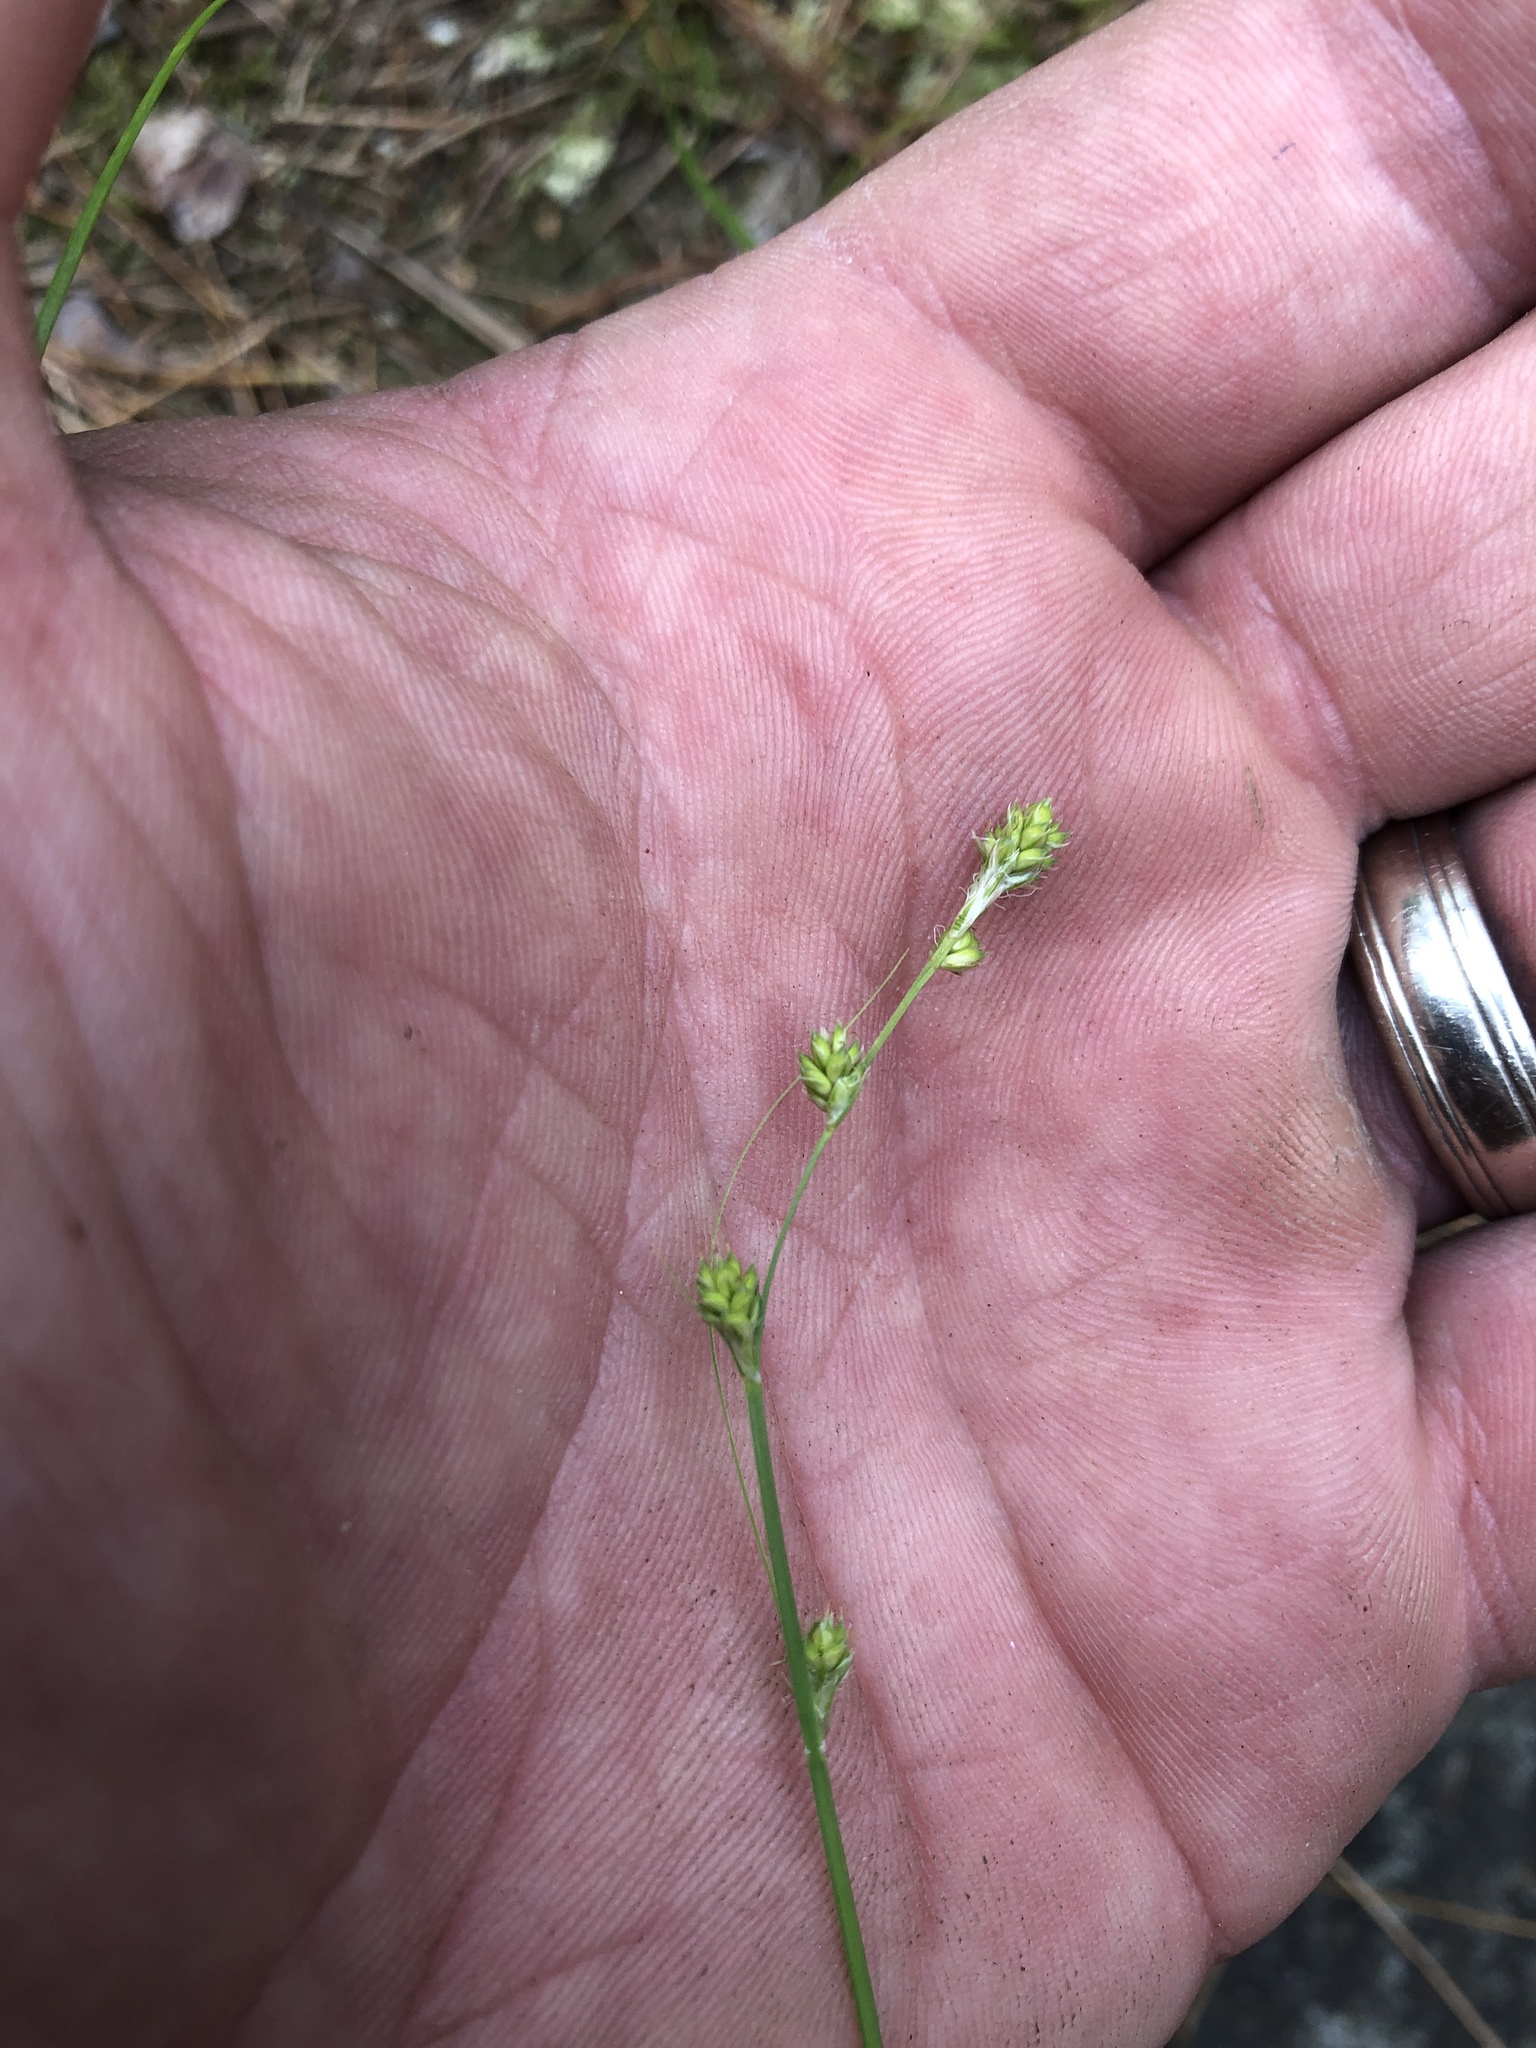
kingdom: Plantae
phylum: Tracheophyta
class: Liliopsida
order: Poales
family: Cyperaceae
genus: Carex
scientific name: Carex brunnescens
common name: Brown sedge
